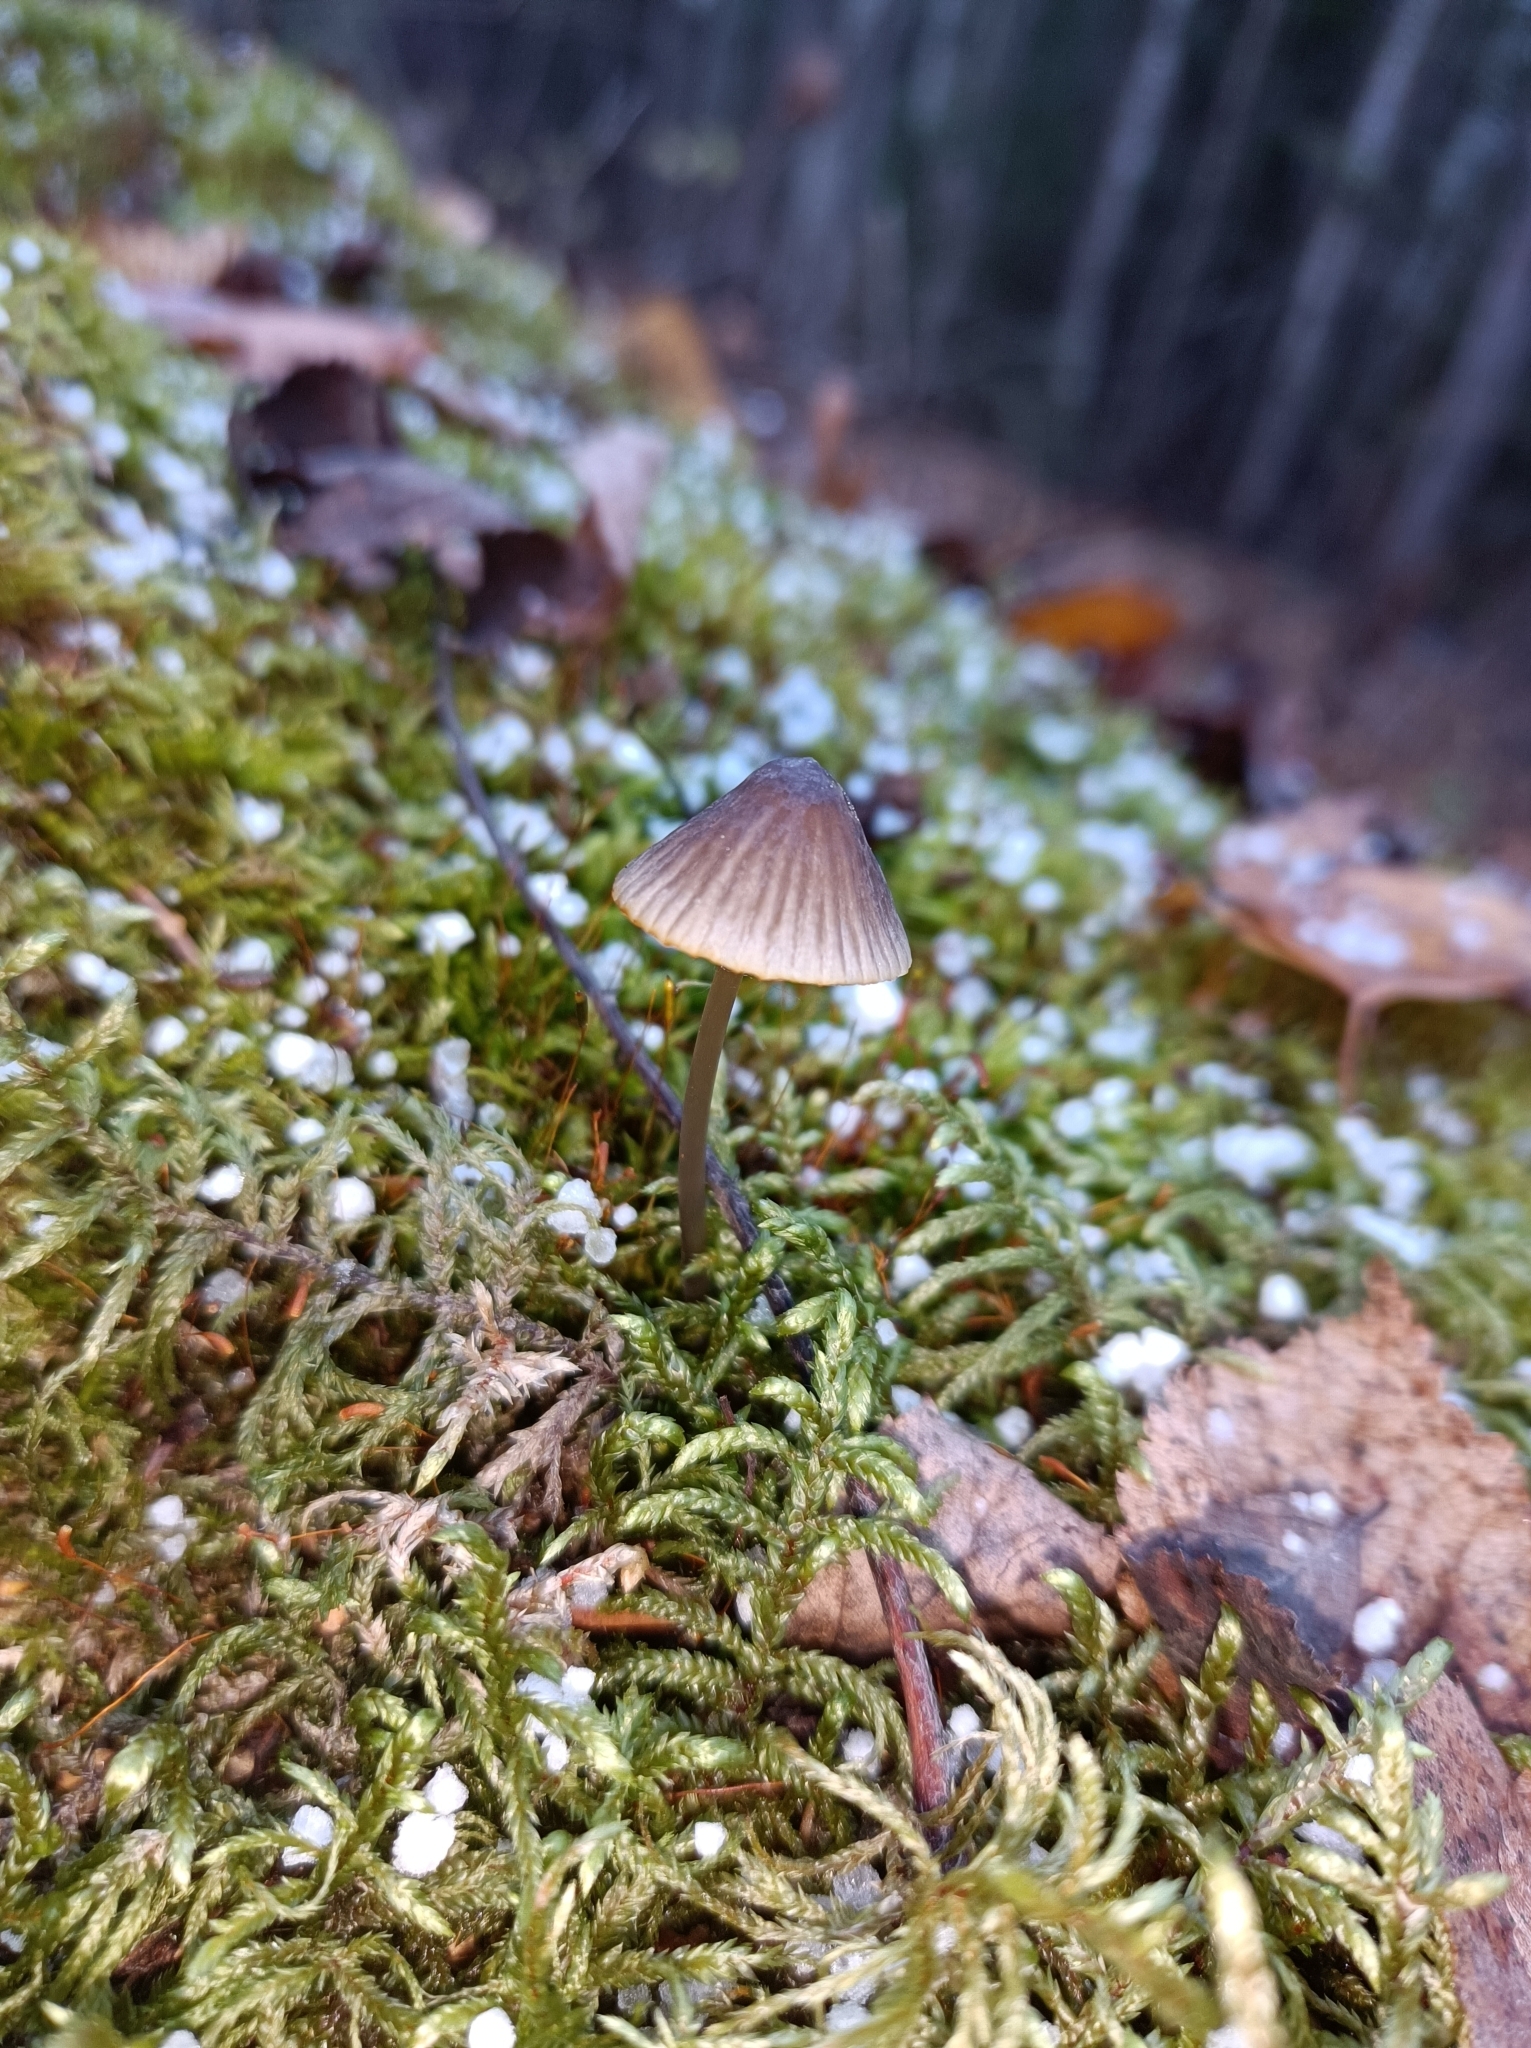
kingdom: Fungi
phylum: Basidiomycota
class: Agaricomycetes
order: Agaricales
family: Mycenaceae
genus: Mycena
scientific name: Mycena galopus
